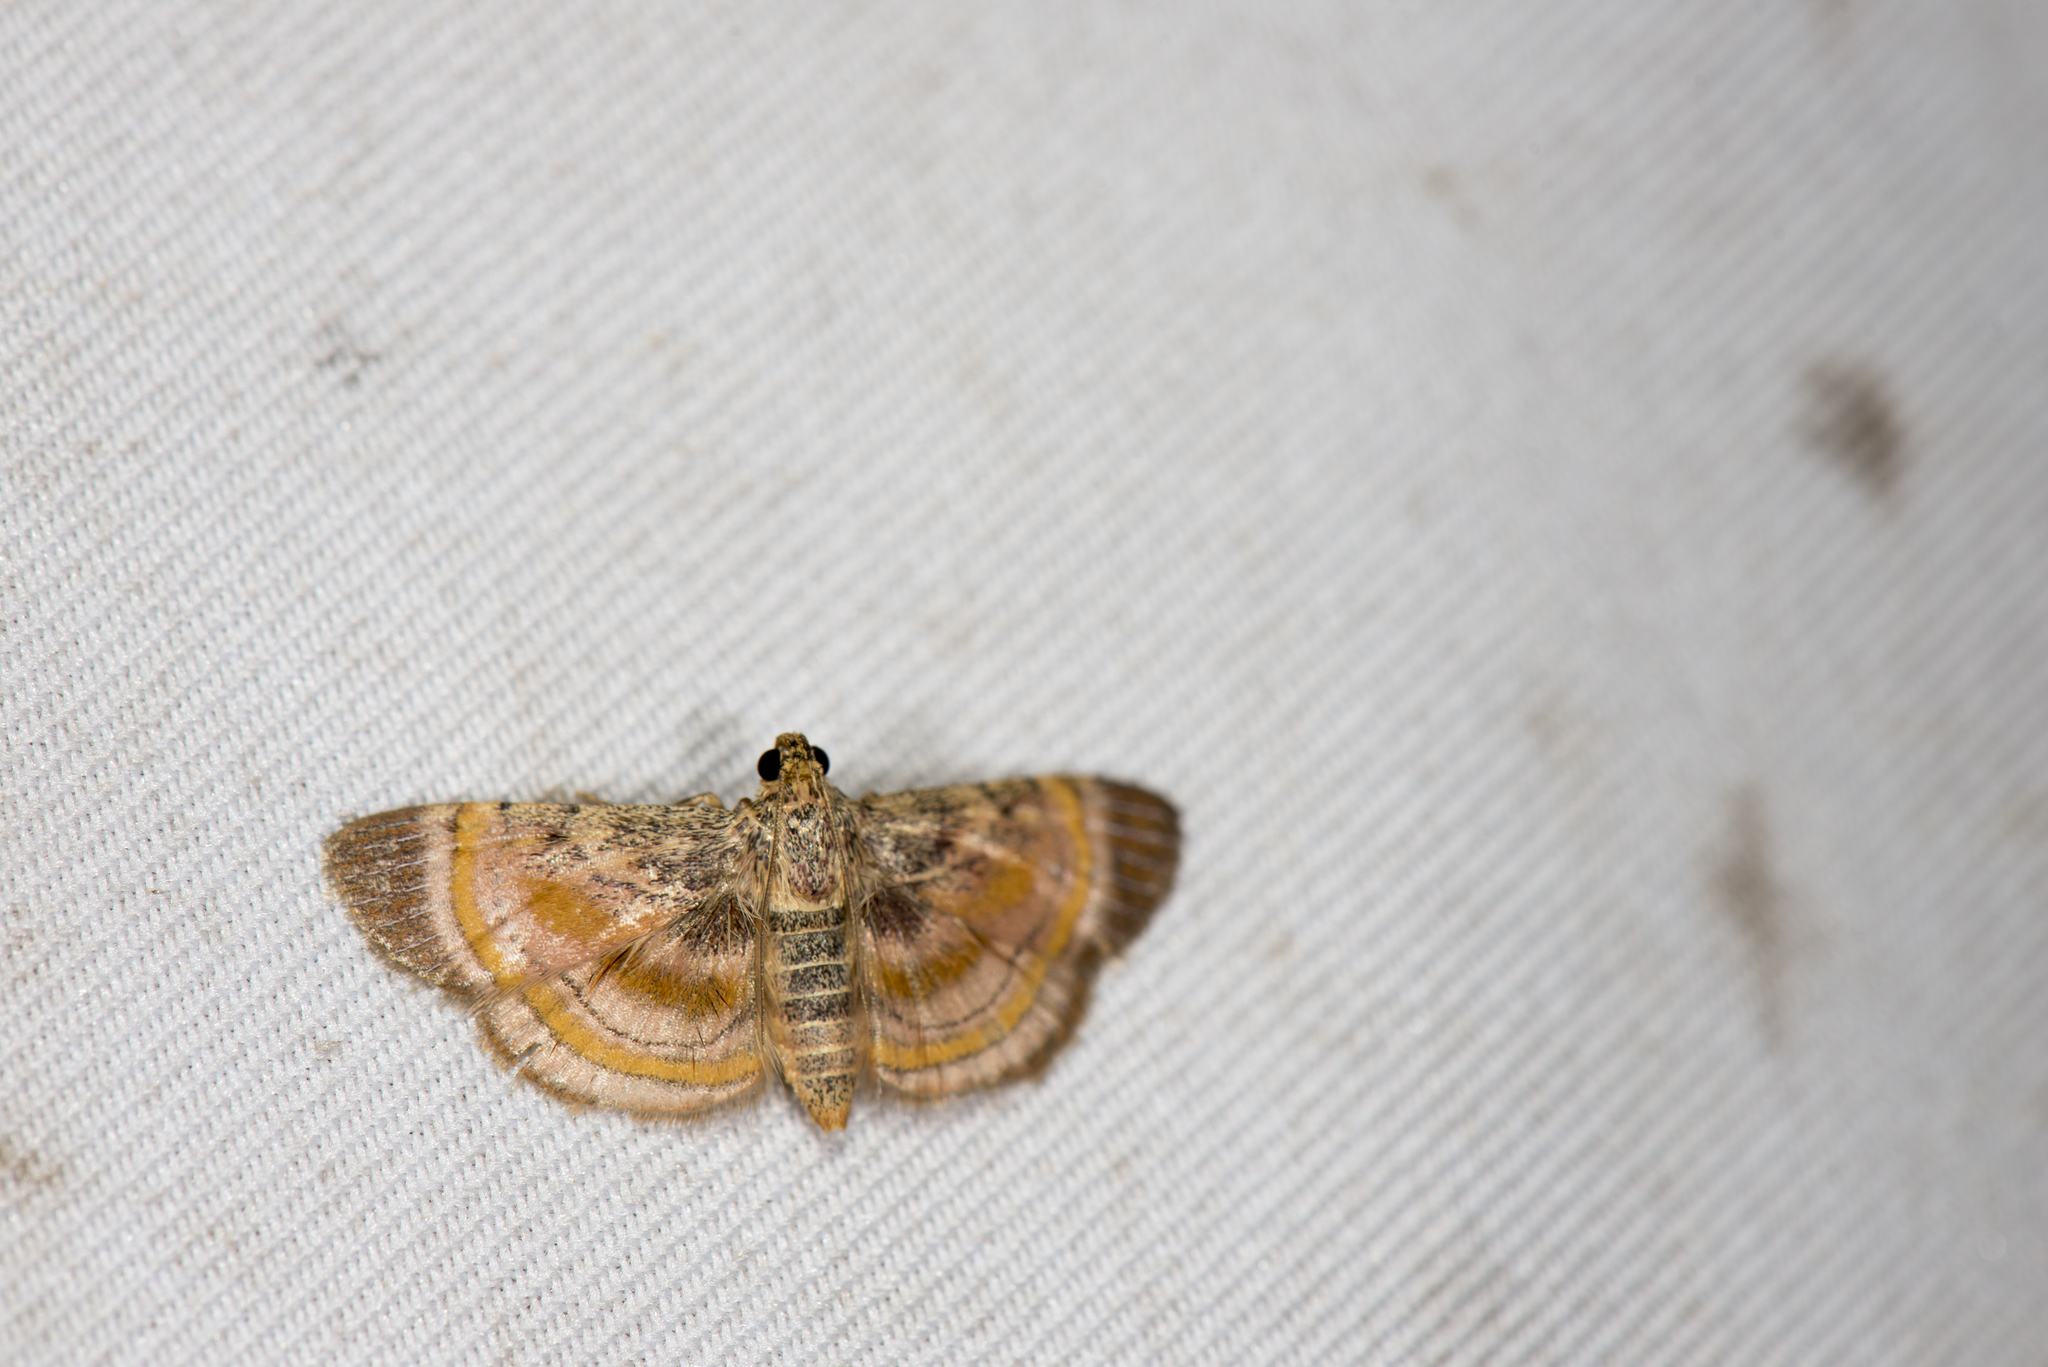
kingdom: Animalia
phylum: Arthropoda
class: Insecta
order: Lepidoptera
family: Pyralidae
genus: Lista
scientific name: Lista haraldusalis
